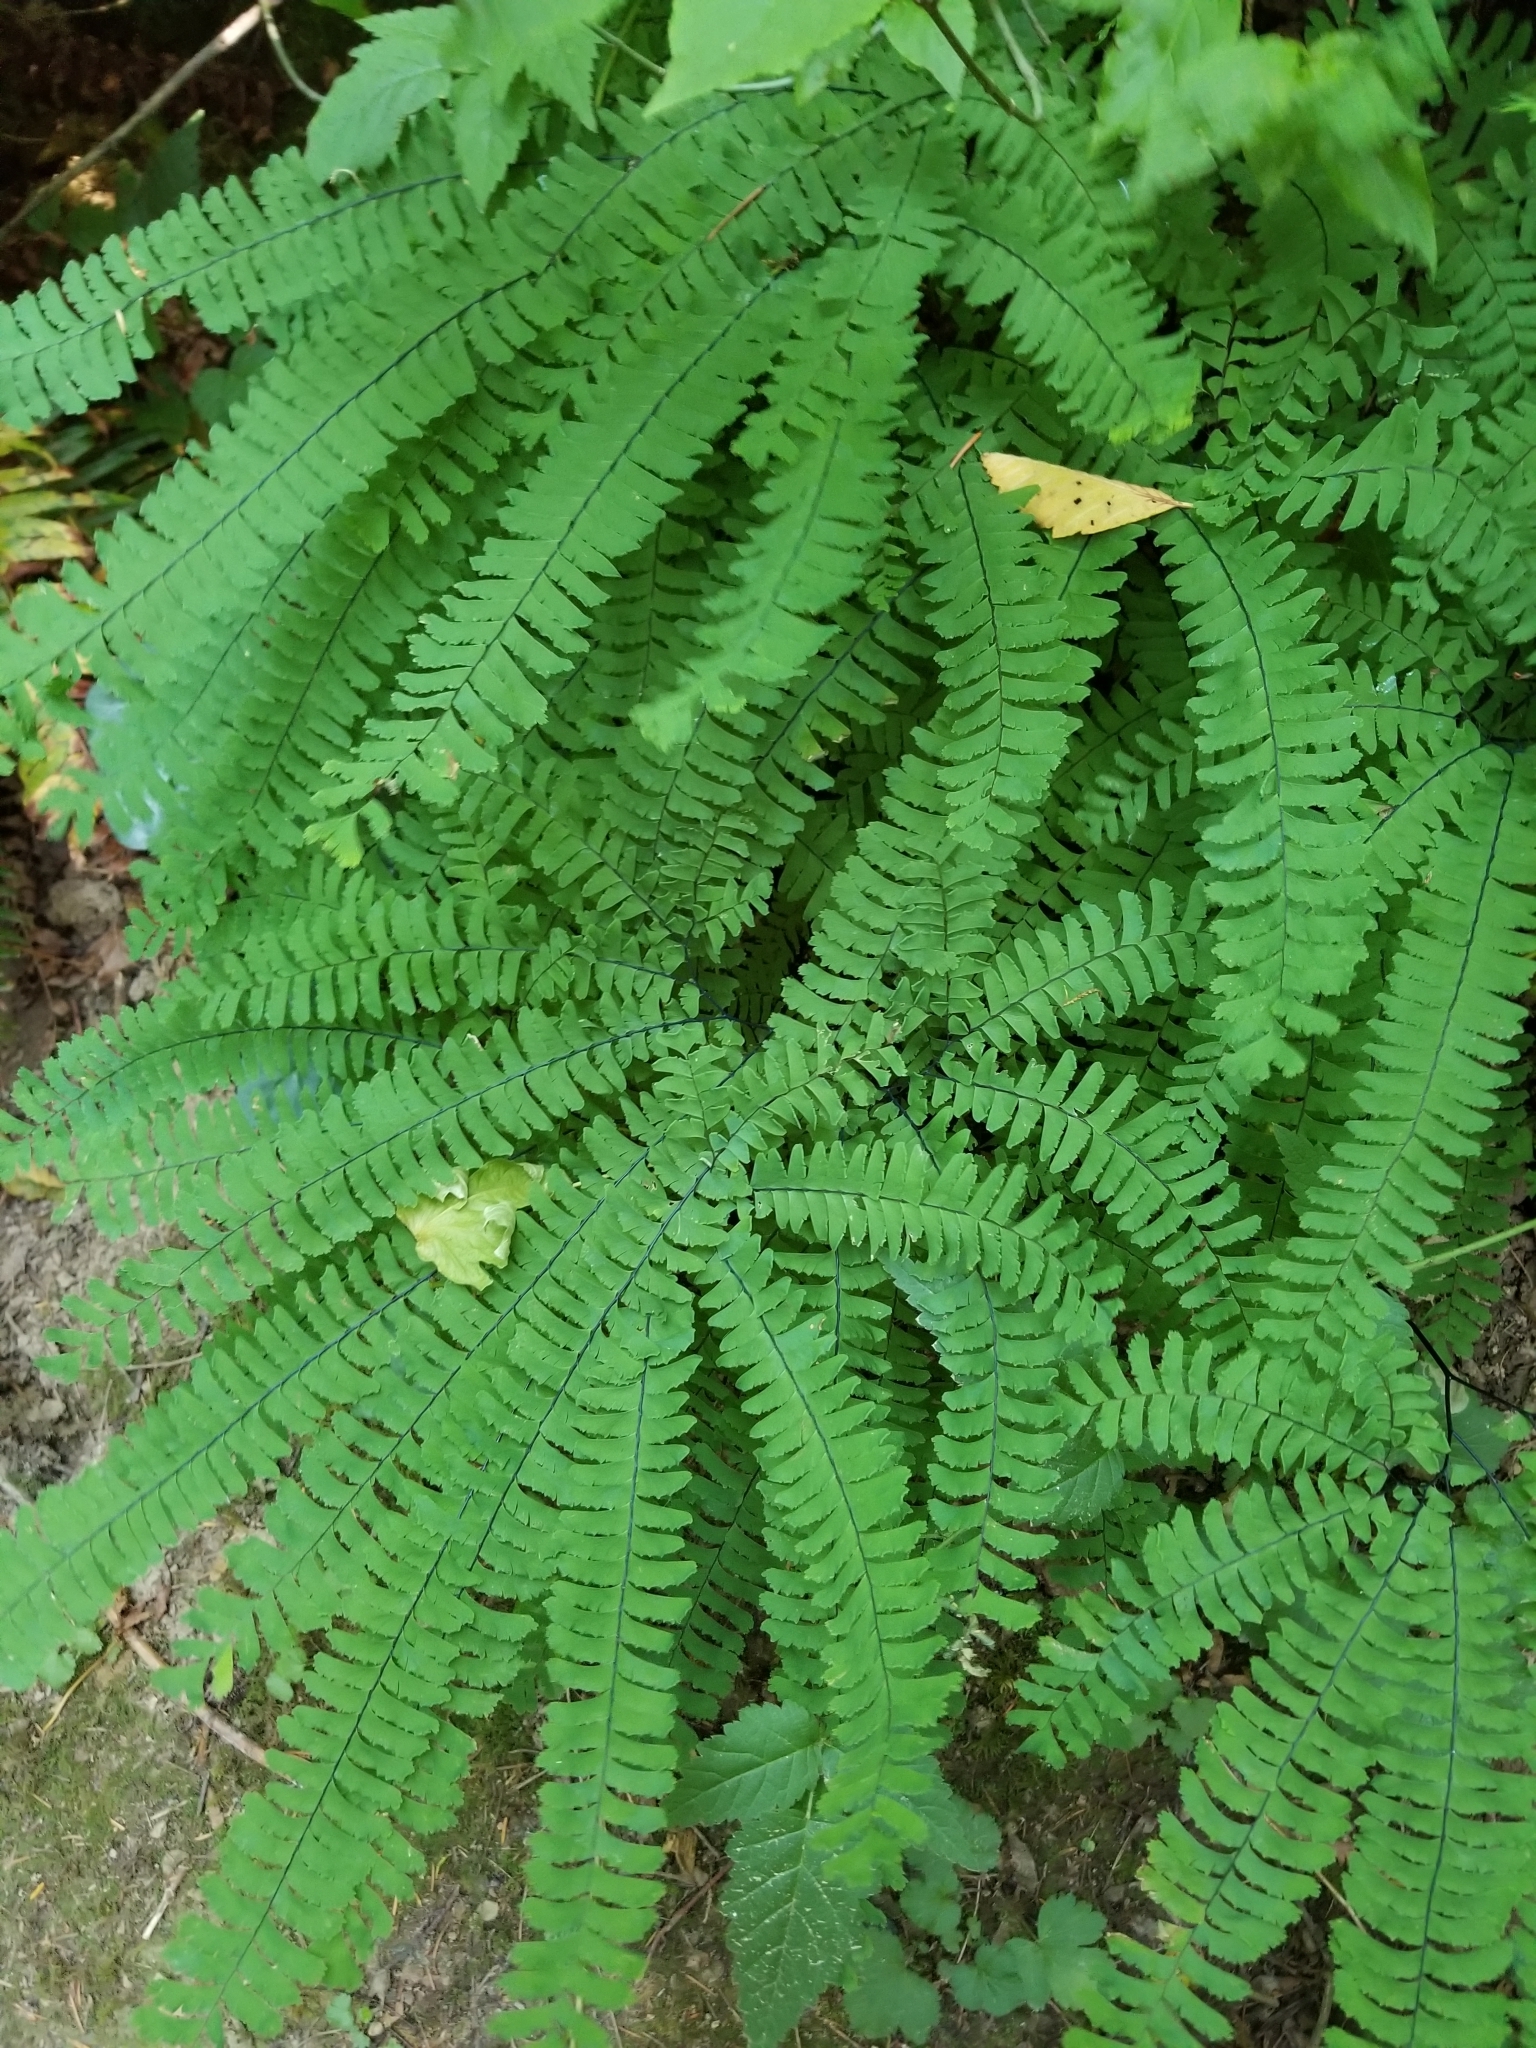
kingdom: Plantae
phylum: Tracheophyta
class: Polypodiopsida
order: Polypodiales
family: Pteridaceae
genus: Adiantum
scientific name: Adiantum aleuticum
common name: Aleutian maidenhair fern
